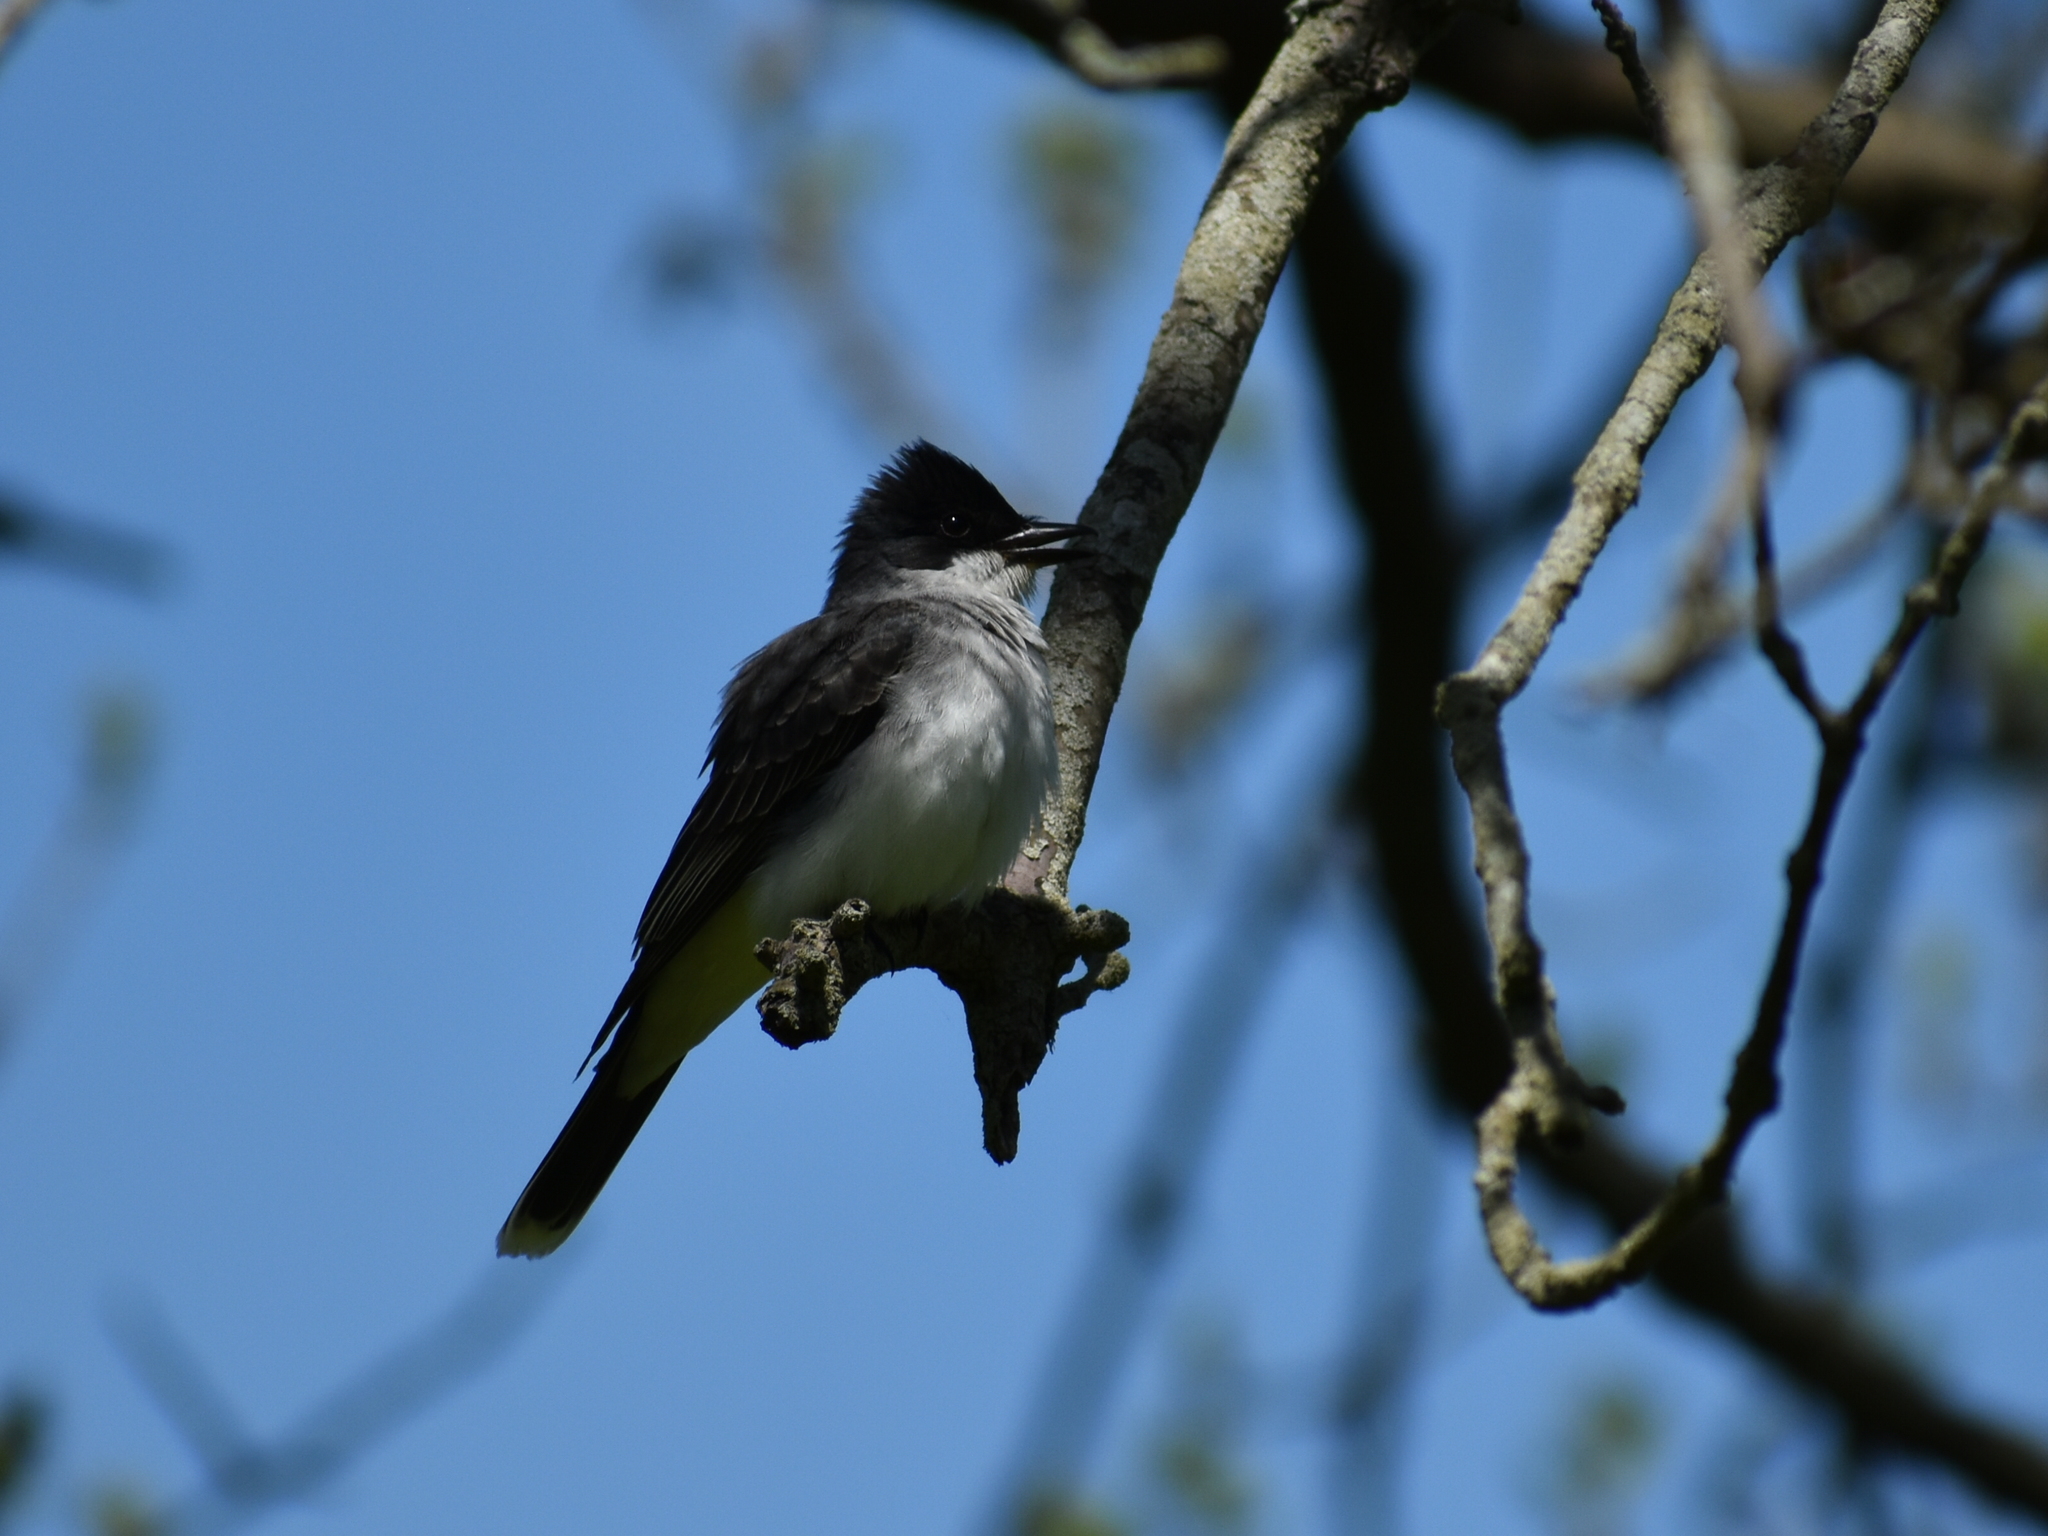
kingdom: Animalia
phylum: Chordata
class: Aves
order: Passeriformes
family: Tyrannidae
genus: Tyrannus
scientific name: Tyrannus tyrannus
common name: Eastern kingbird
